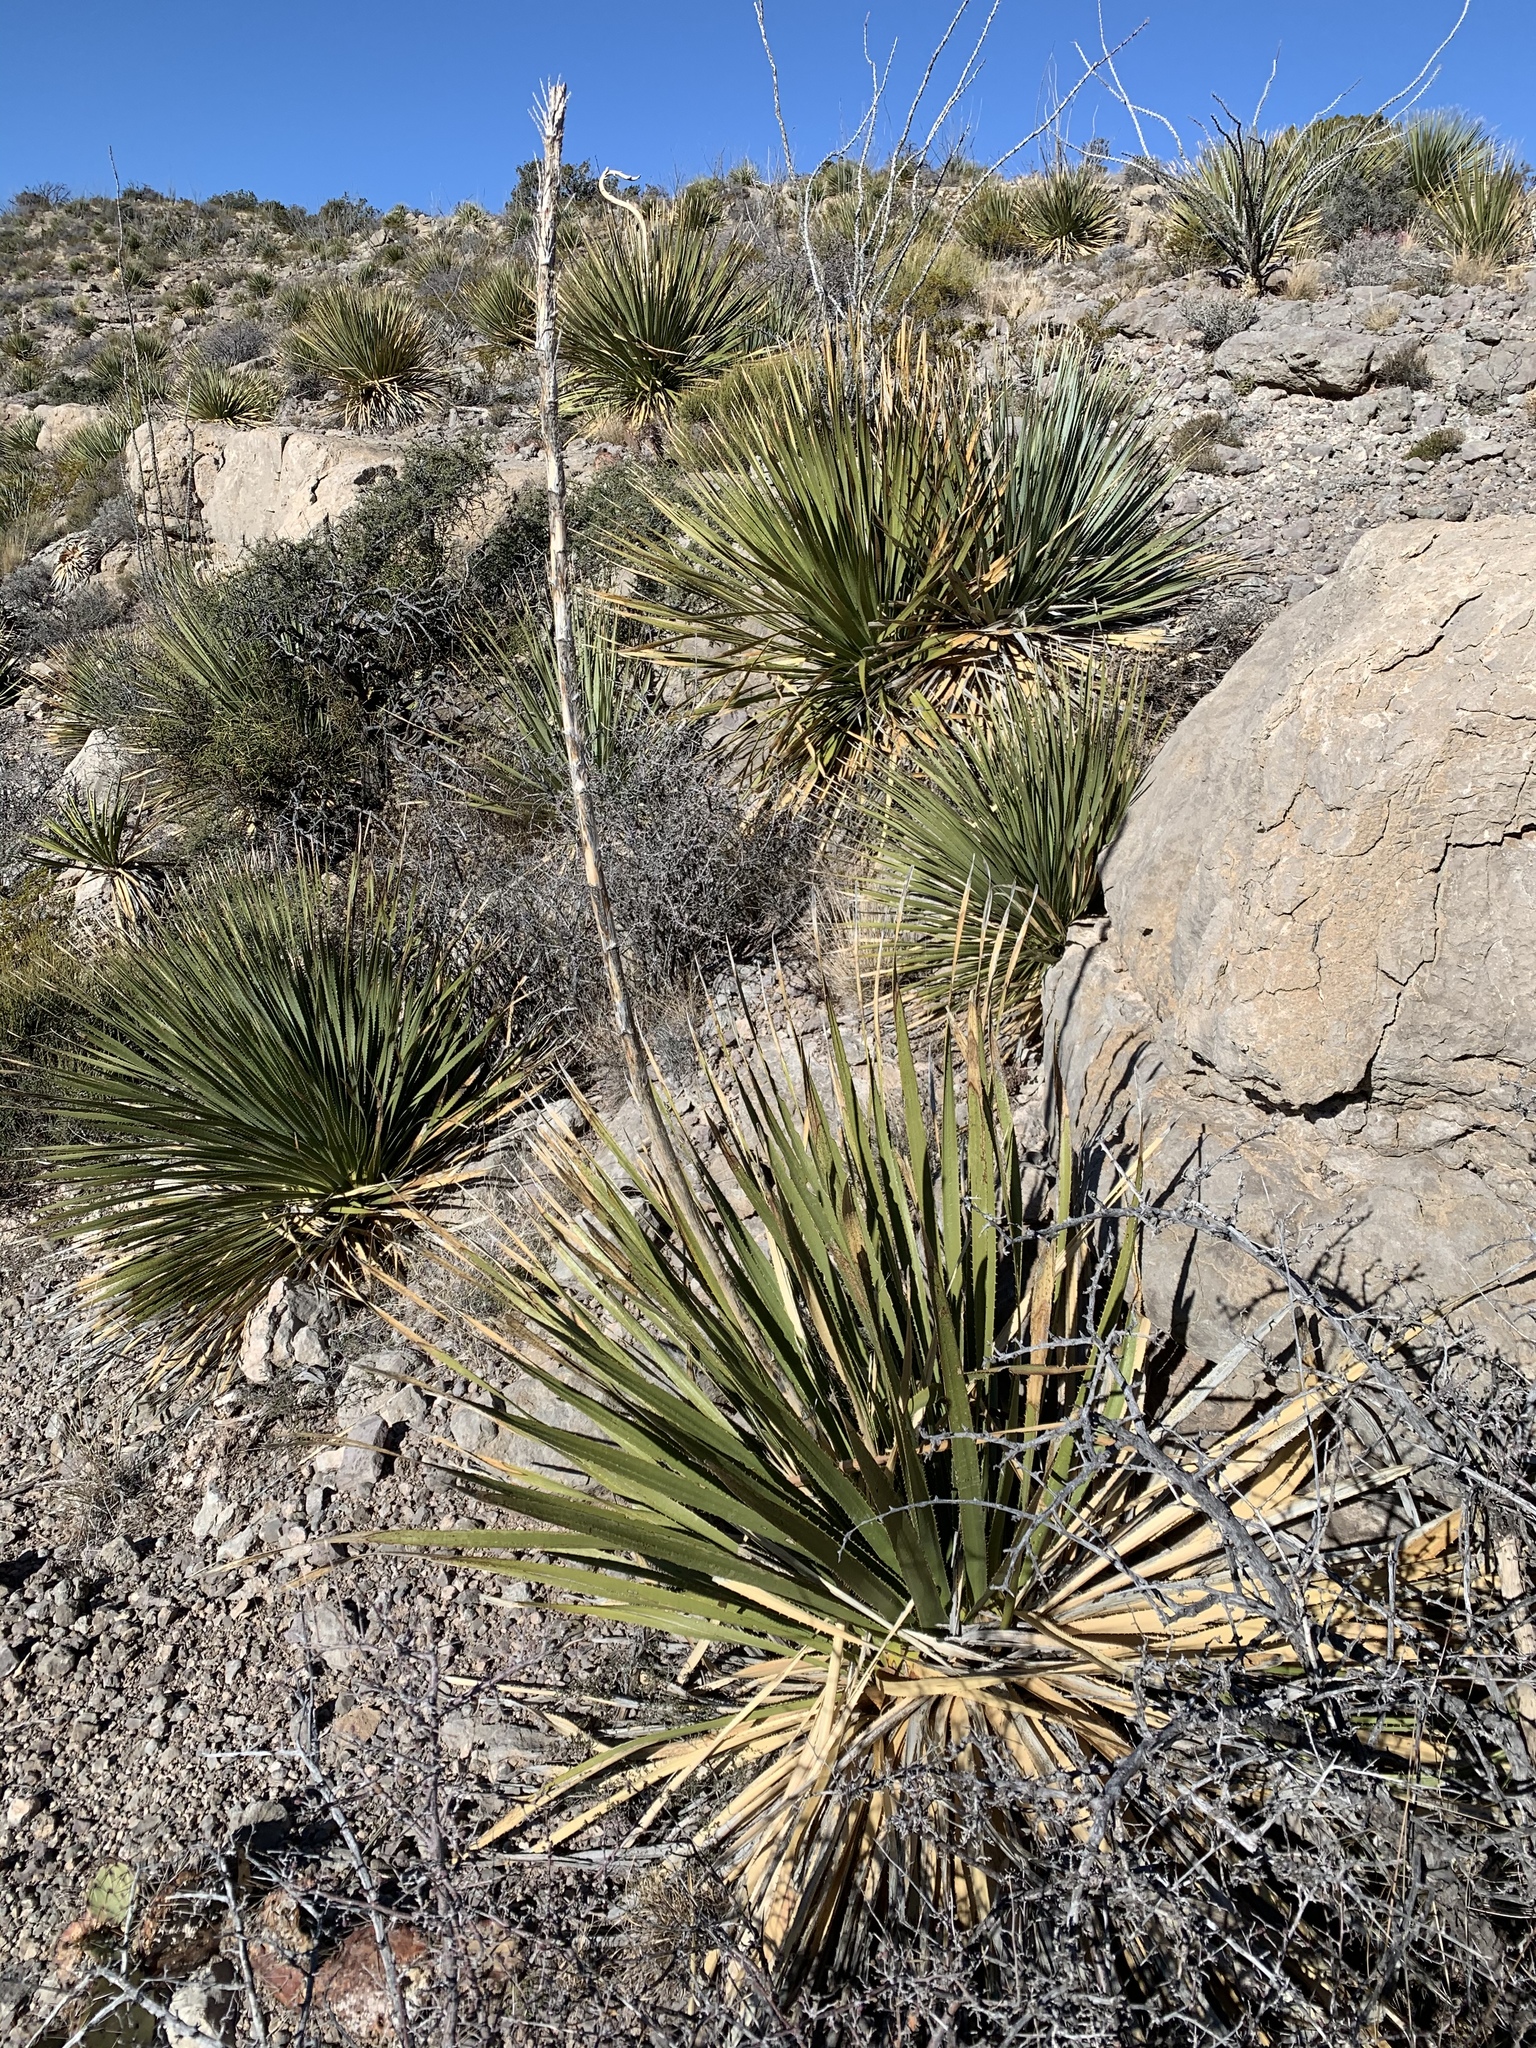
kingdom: Plantae
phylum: Tracheophyta
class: Liliopsida
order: Asparagales
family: Asparagaceae
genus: Dasylirion
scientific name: Dasylirion wheeleri
